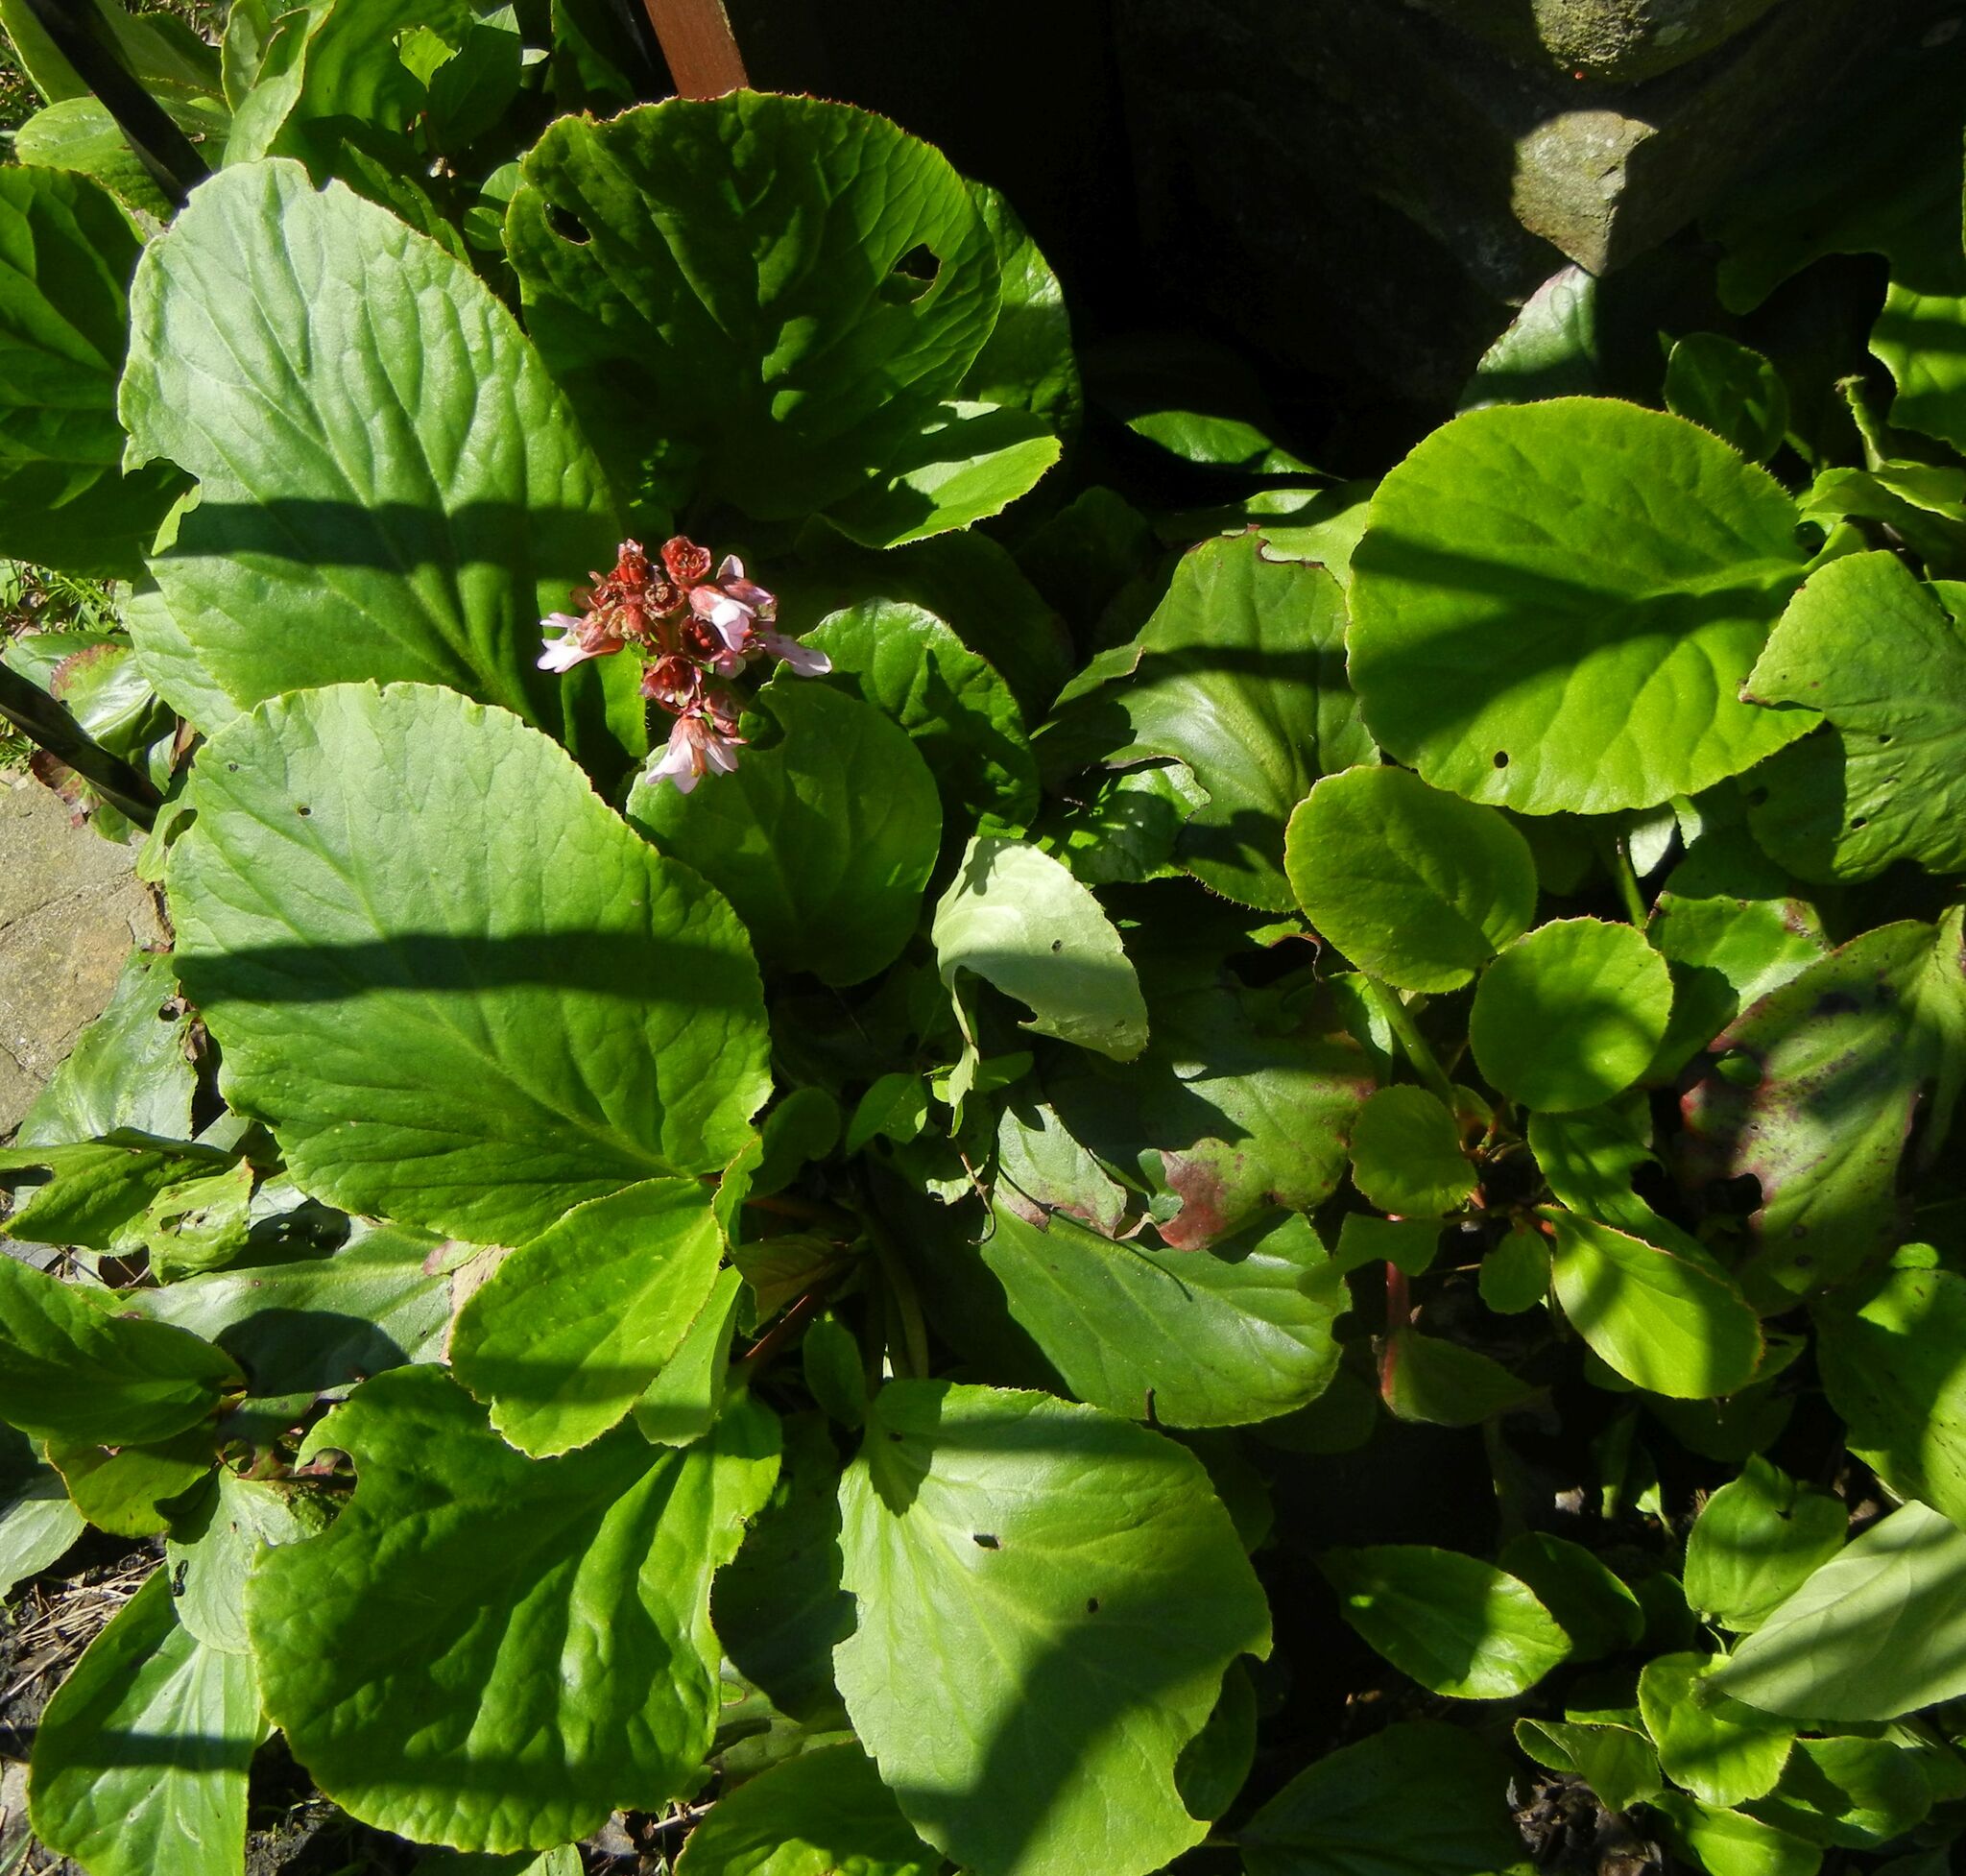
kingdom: Plantae
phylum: Tracheophyta
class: Magnoliopsida
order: Saxifragales
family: Saxifragaceae
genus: Bergenia
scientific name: Bergenia crassifolia
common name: Elephant-ears
